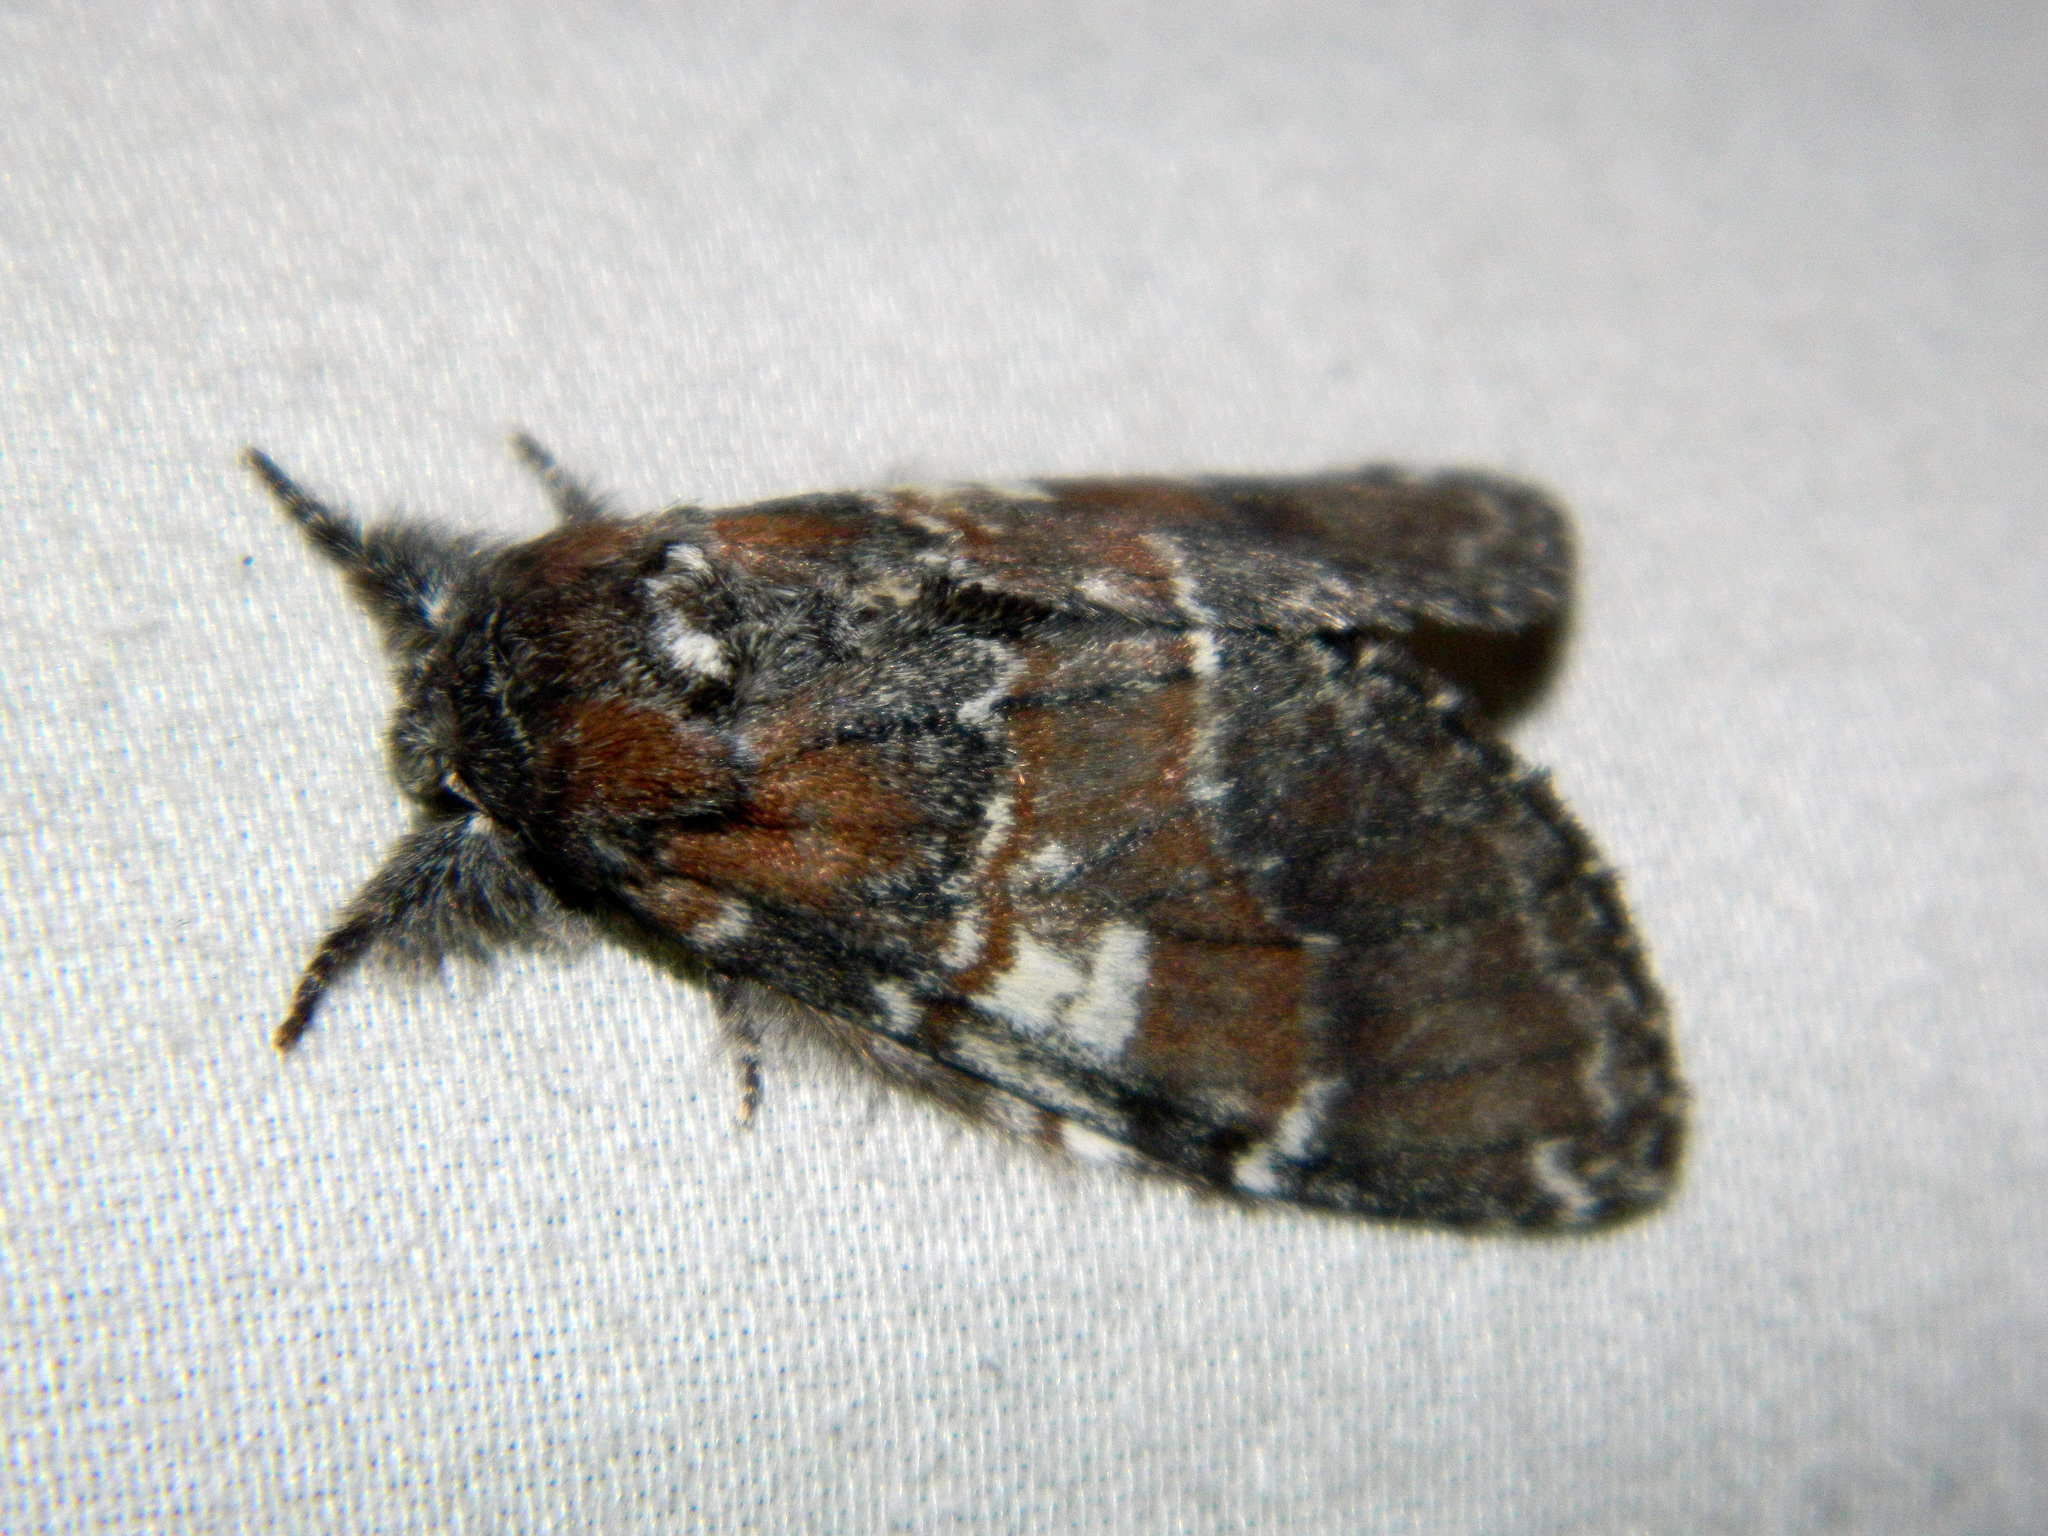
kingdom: Animalia
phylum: Arthropoda
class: Insecta
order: Lepidoptera
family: Notodontidae
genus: Peridea
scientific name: Peridea ferruginea
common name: Chocolate prominent
